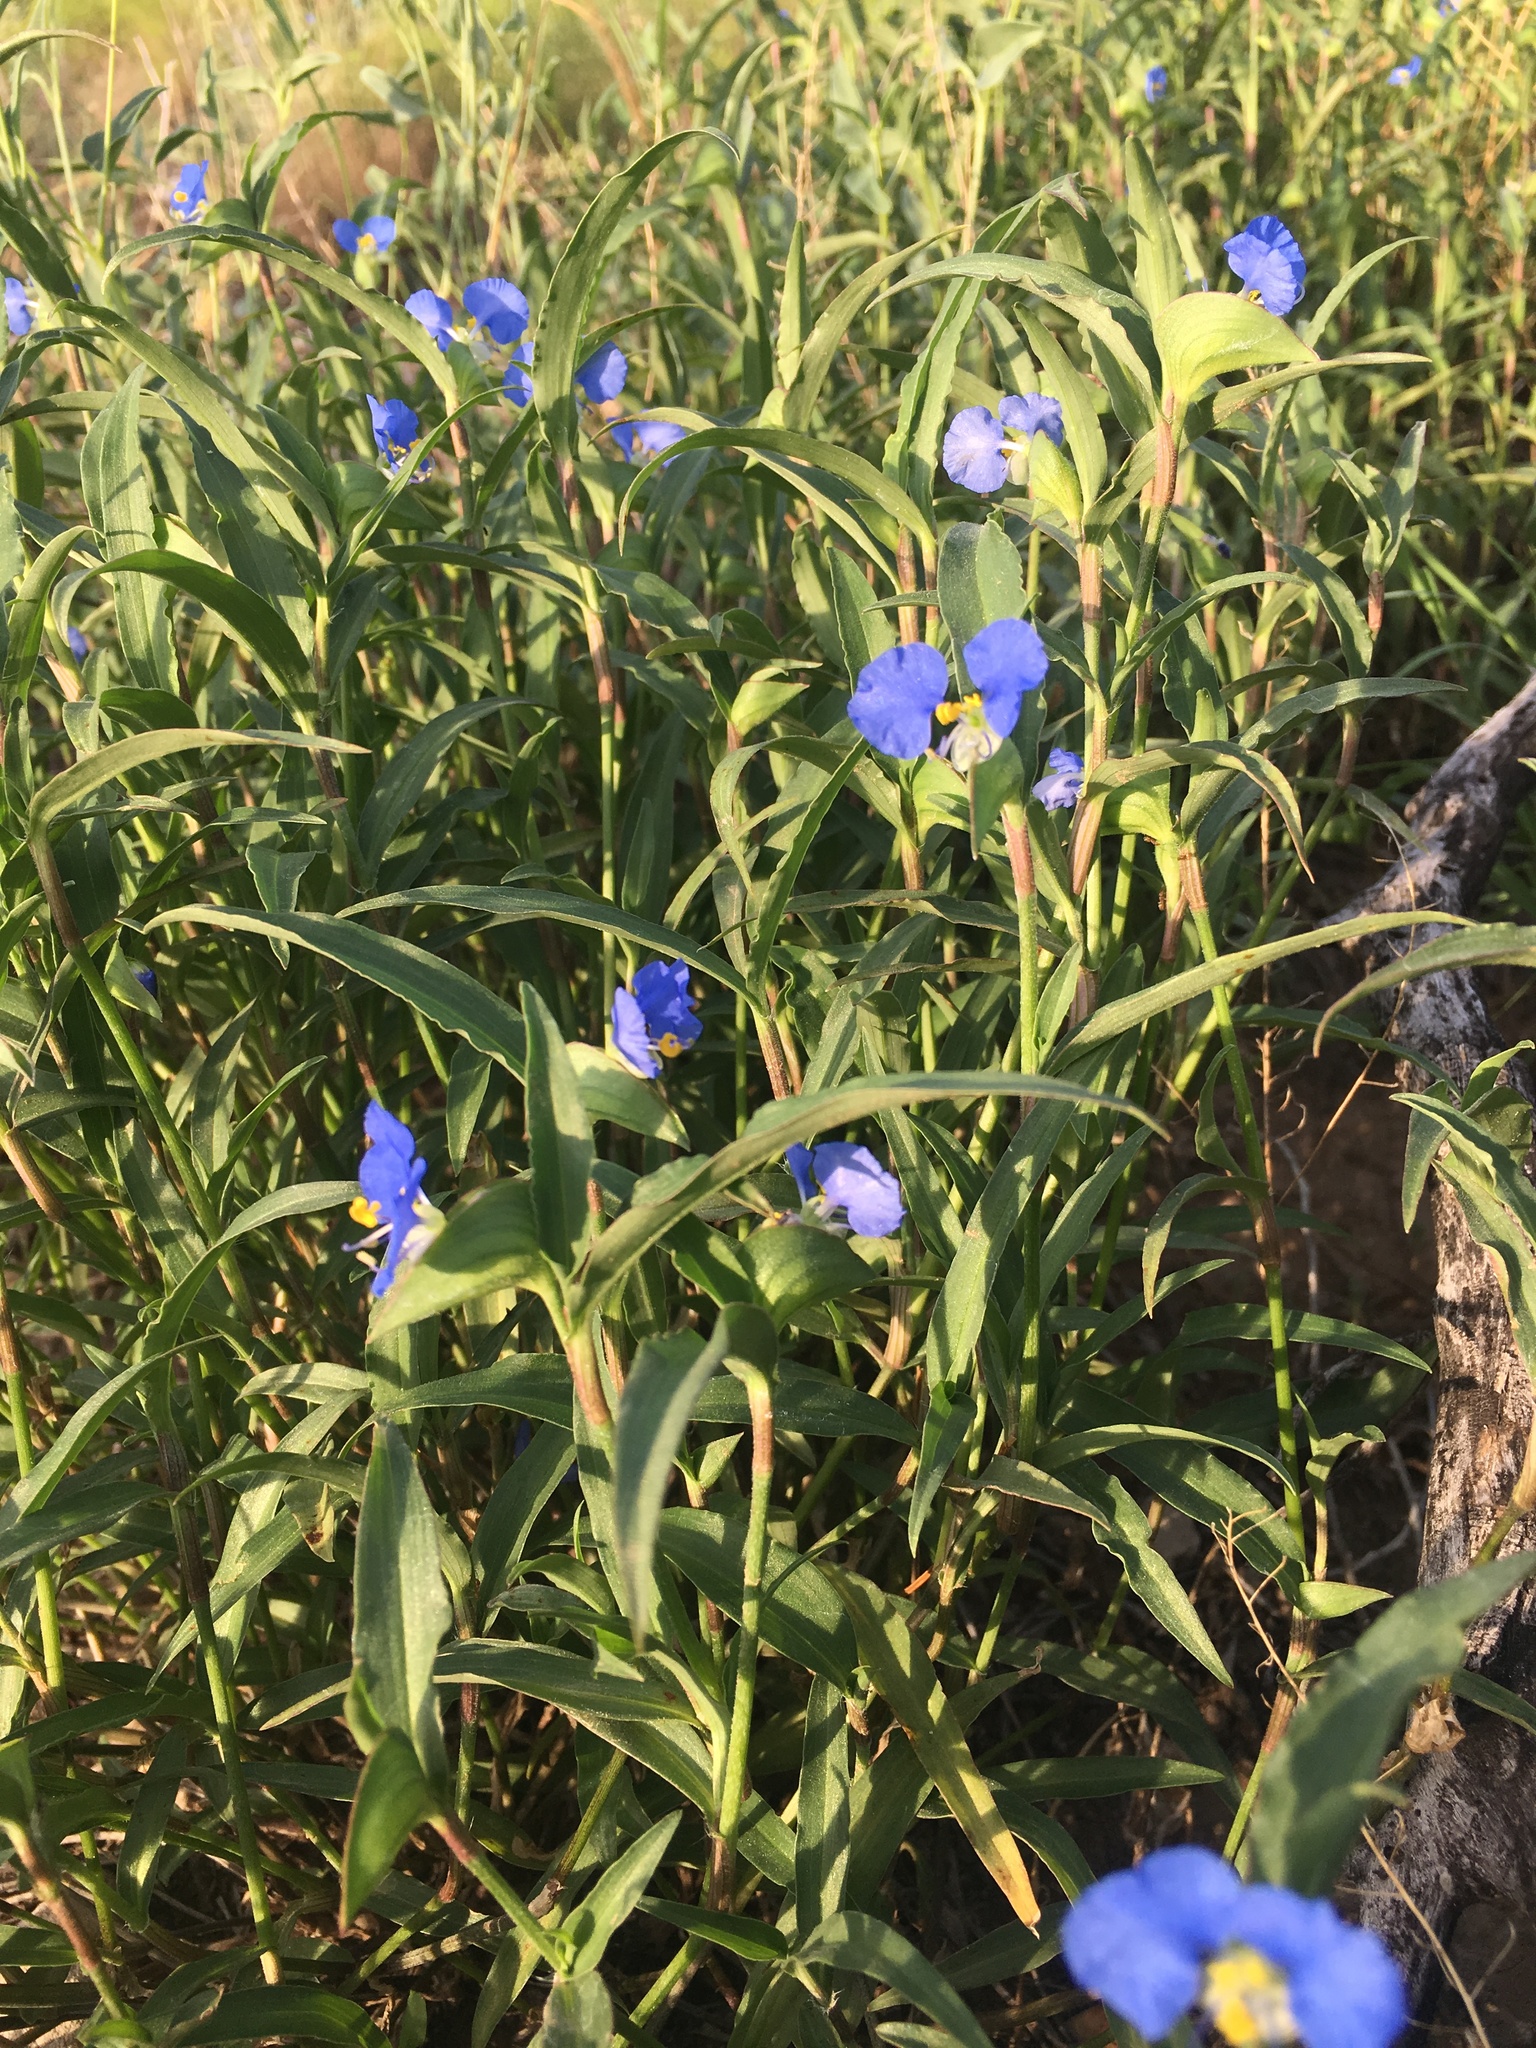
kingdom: Plantae
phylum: Tracheophyta
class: Liliopsida
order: Commelinales
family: Commelinaceae
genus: Commelina
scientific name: Commelina erecta
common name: Blousel blommetjie
